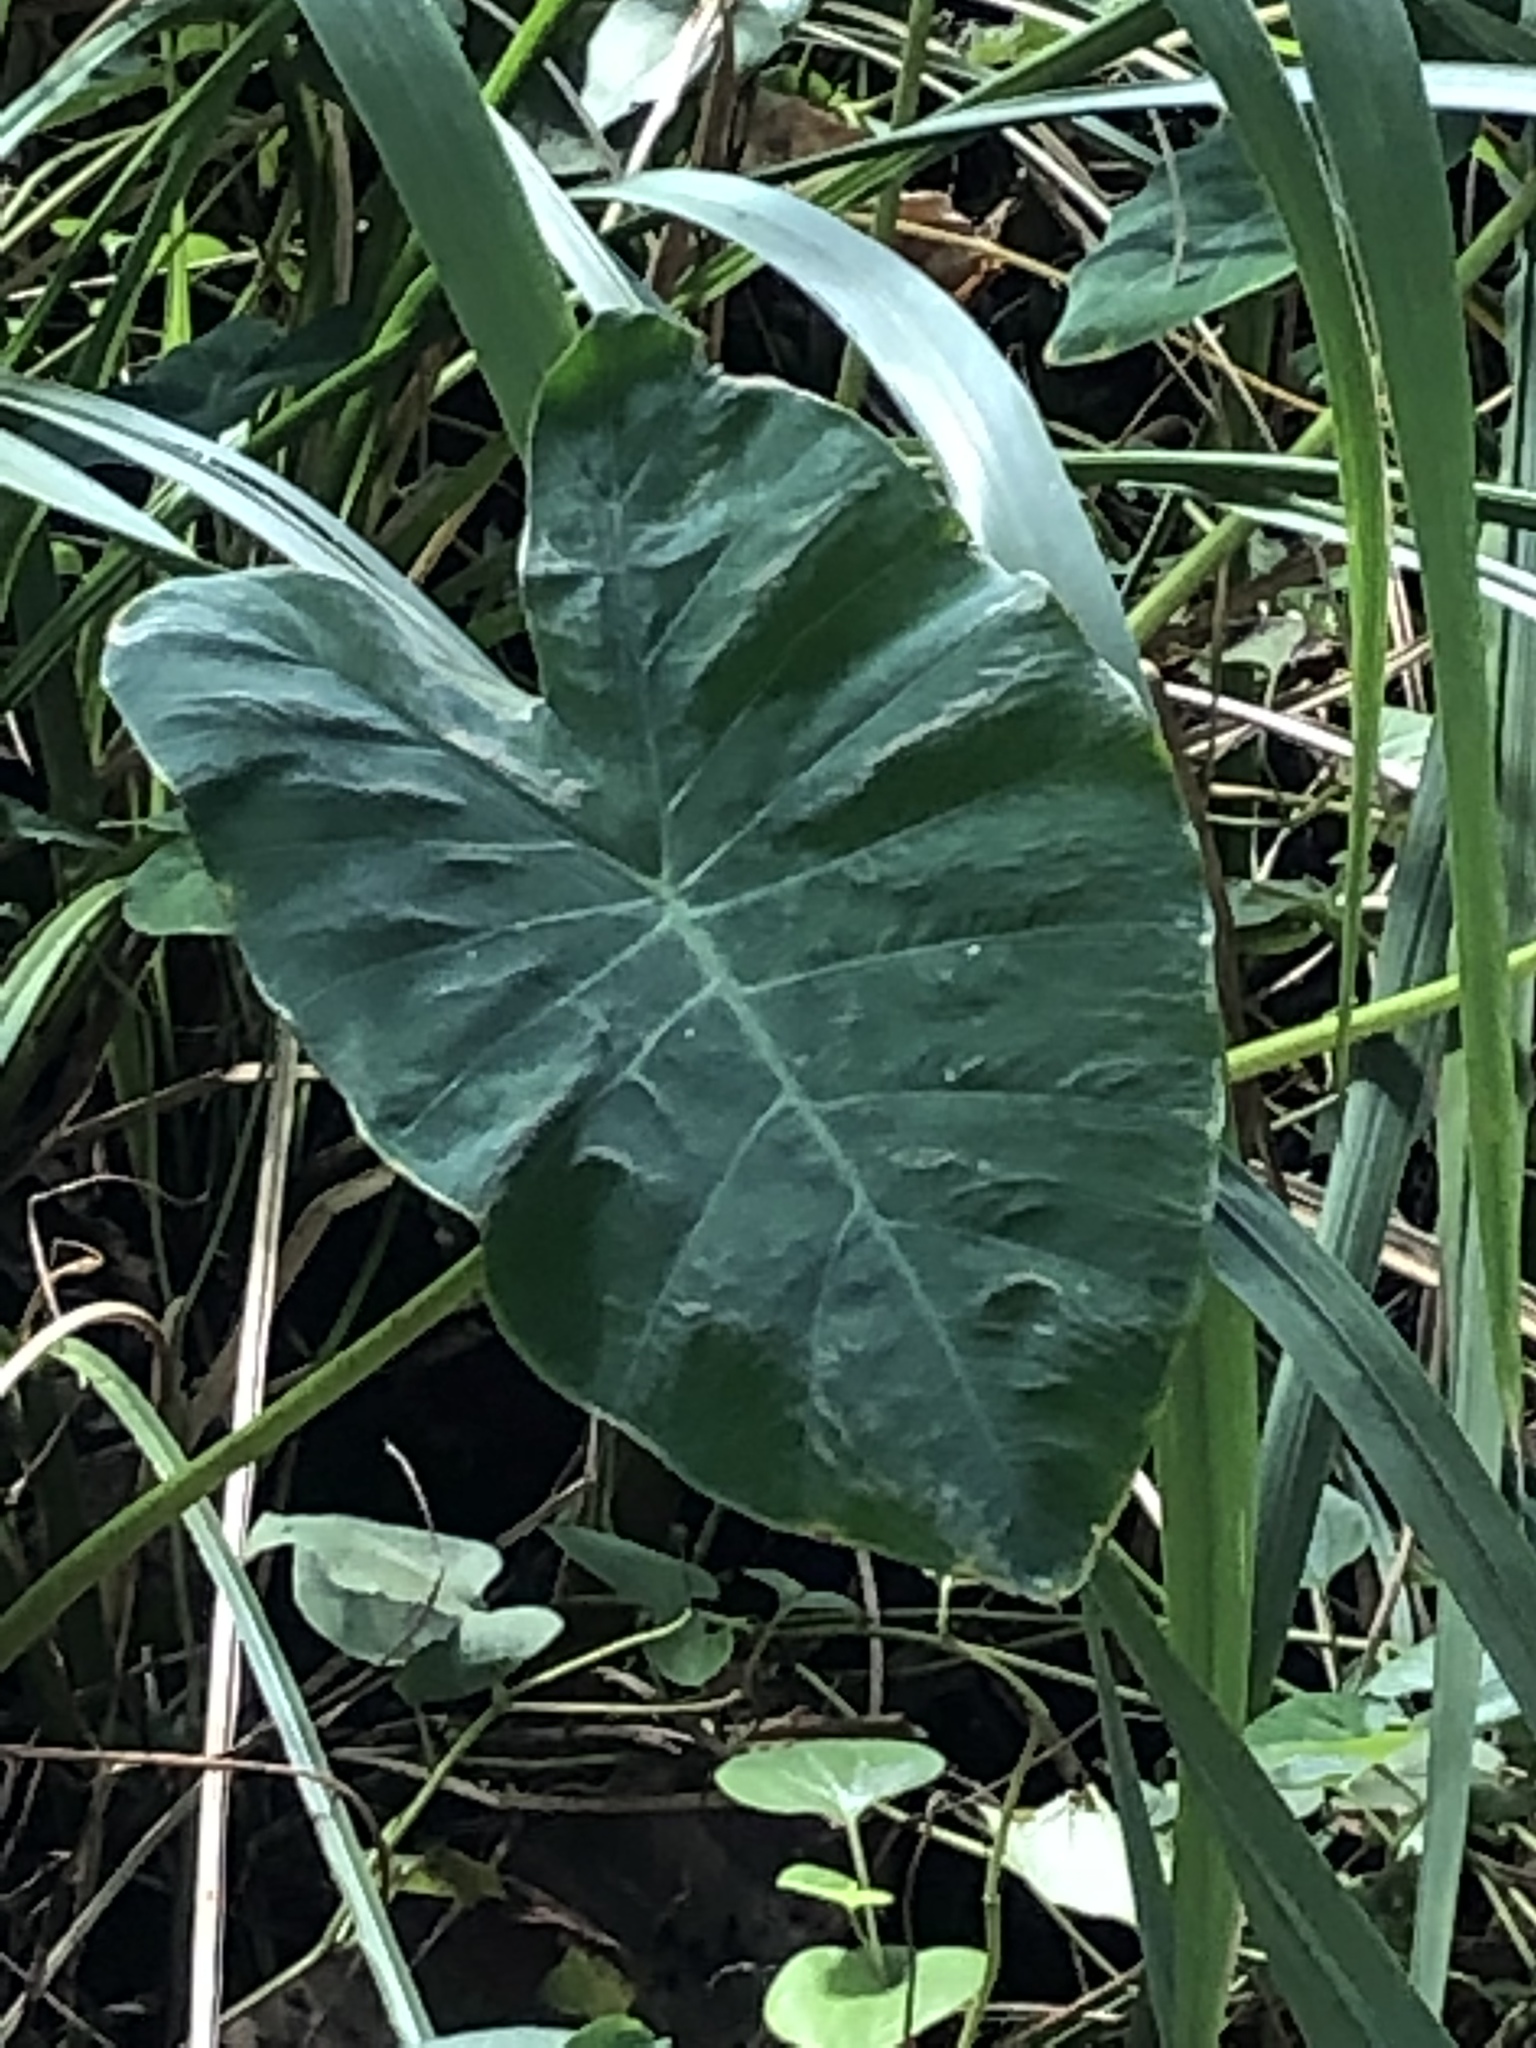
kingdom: Plantae
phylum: Tracheophyta
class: Liliopsida
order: Alismatales
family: Araceae
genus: Colocasia
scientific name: Colocasia esculenta
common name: Taro
